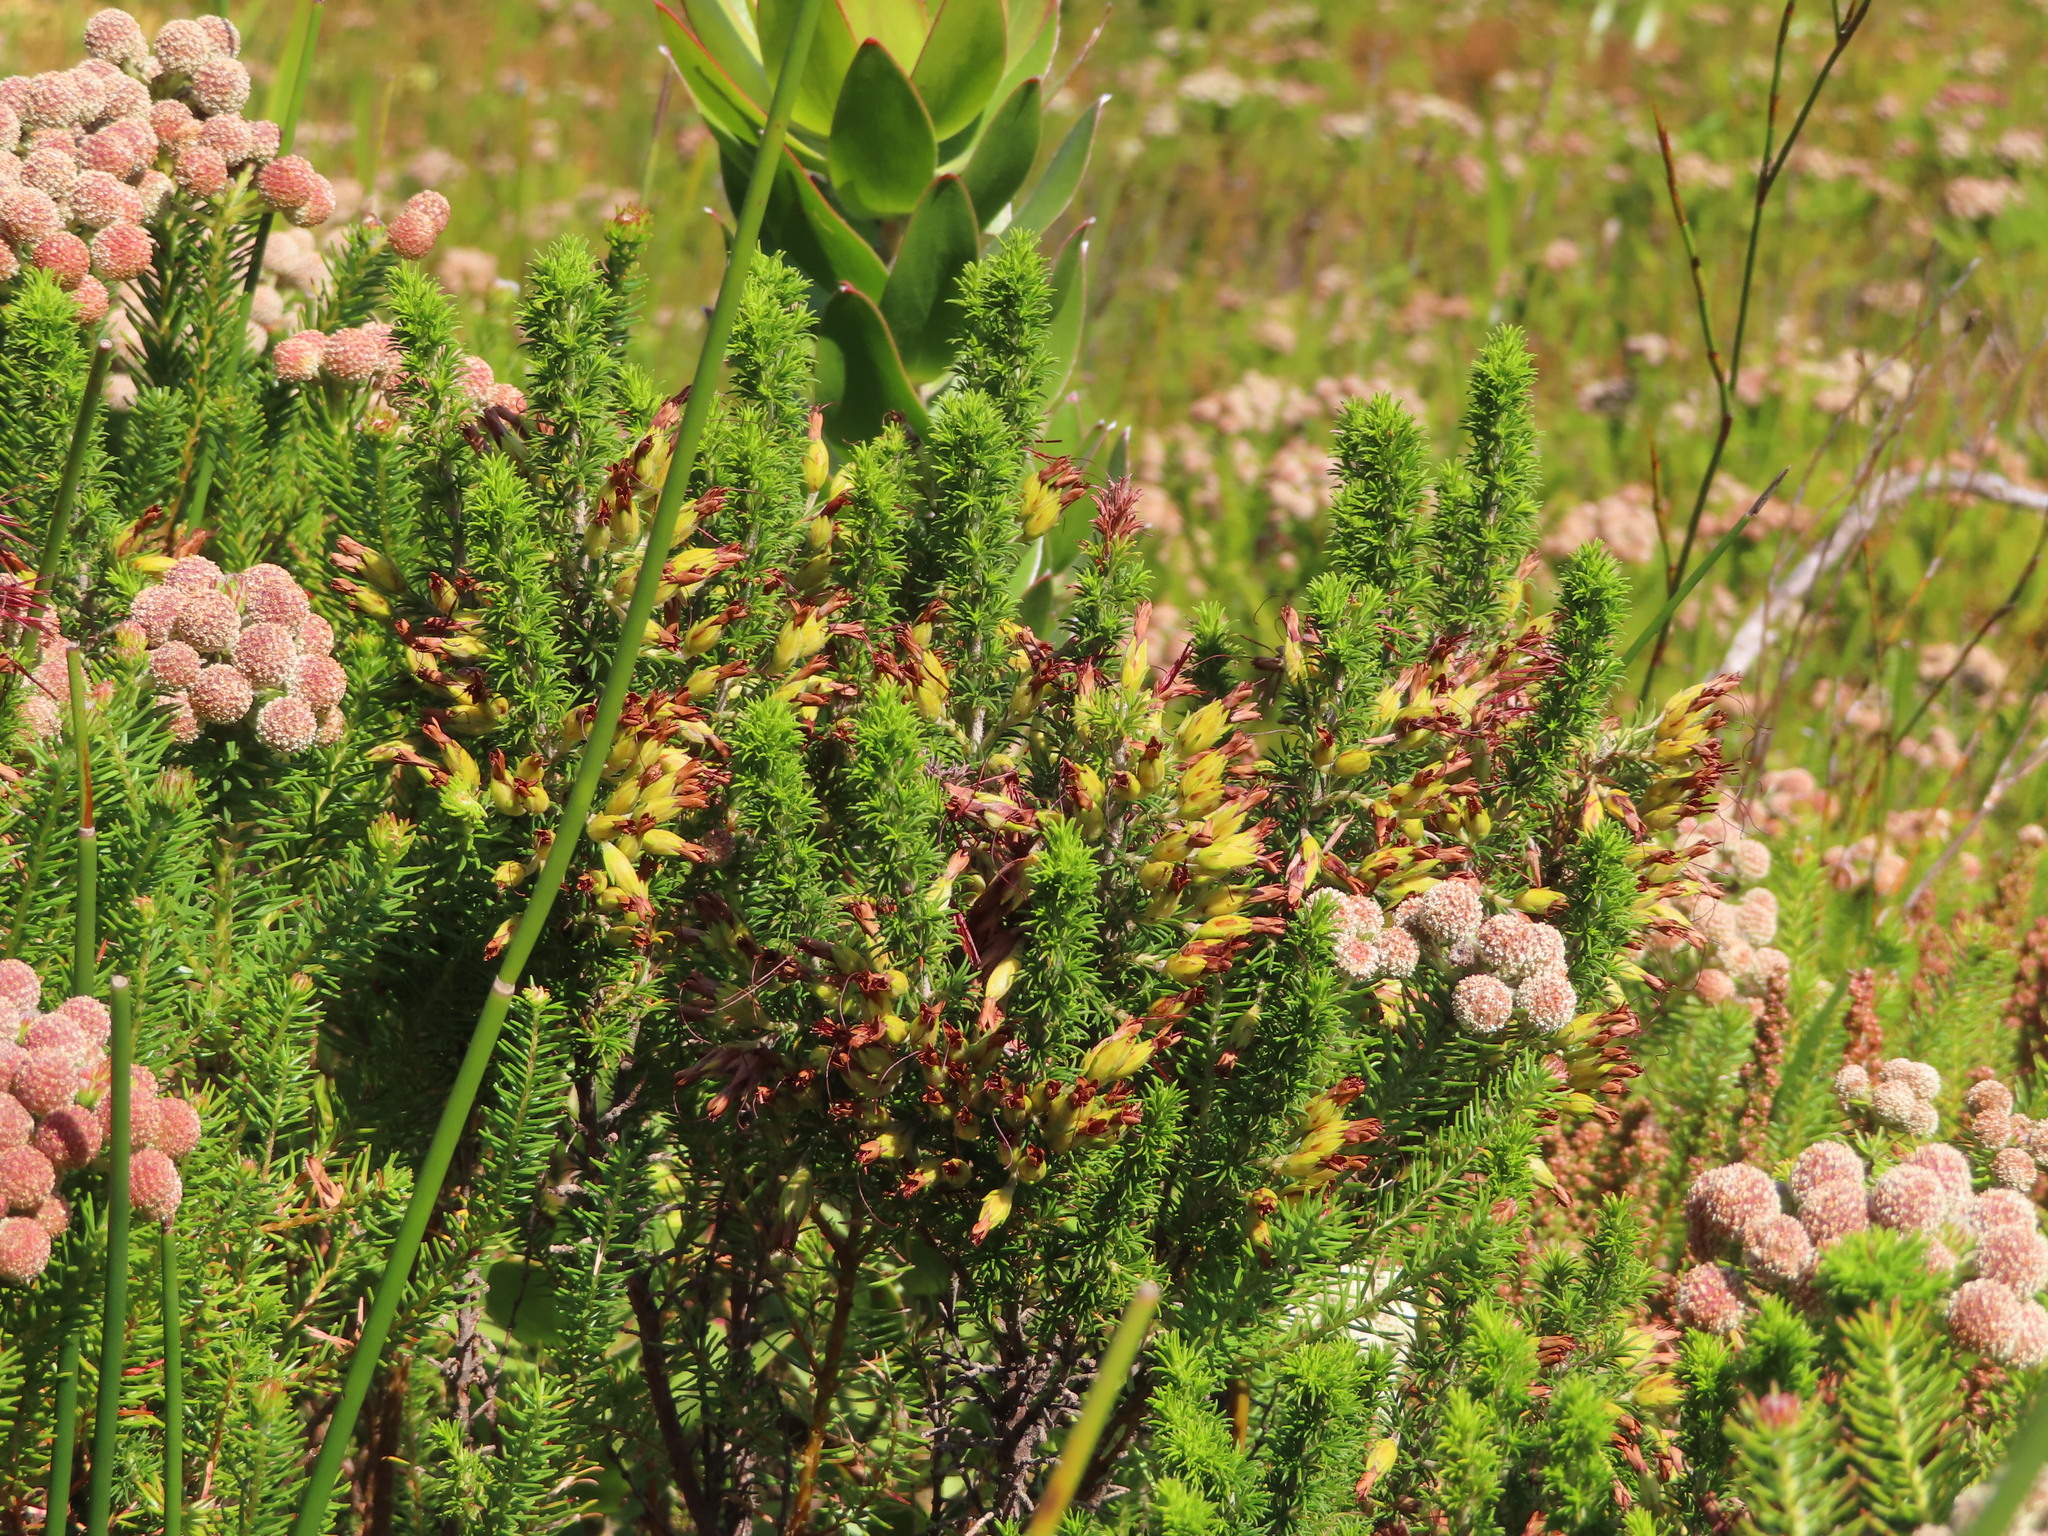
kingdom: Plantae
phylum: Tracheophyta
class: Magnoliopsida
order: Bruniales
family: Bruniaceae
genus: Berzelia
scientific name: Berzelia intermedia
